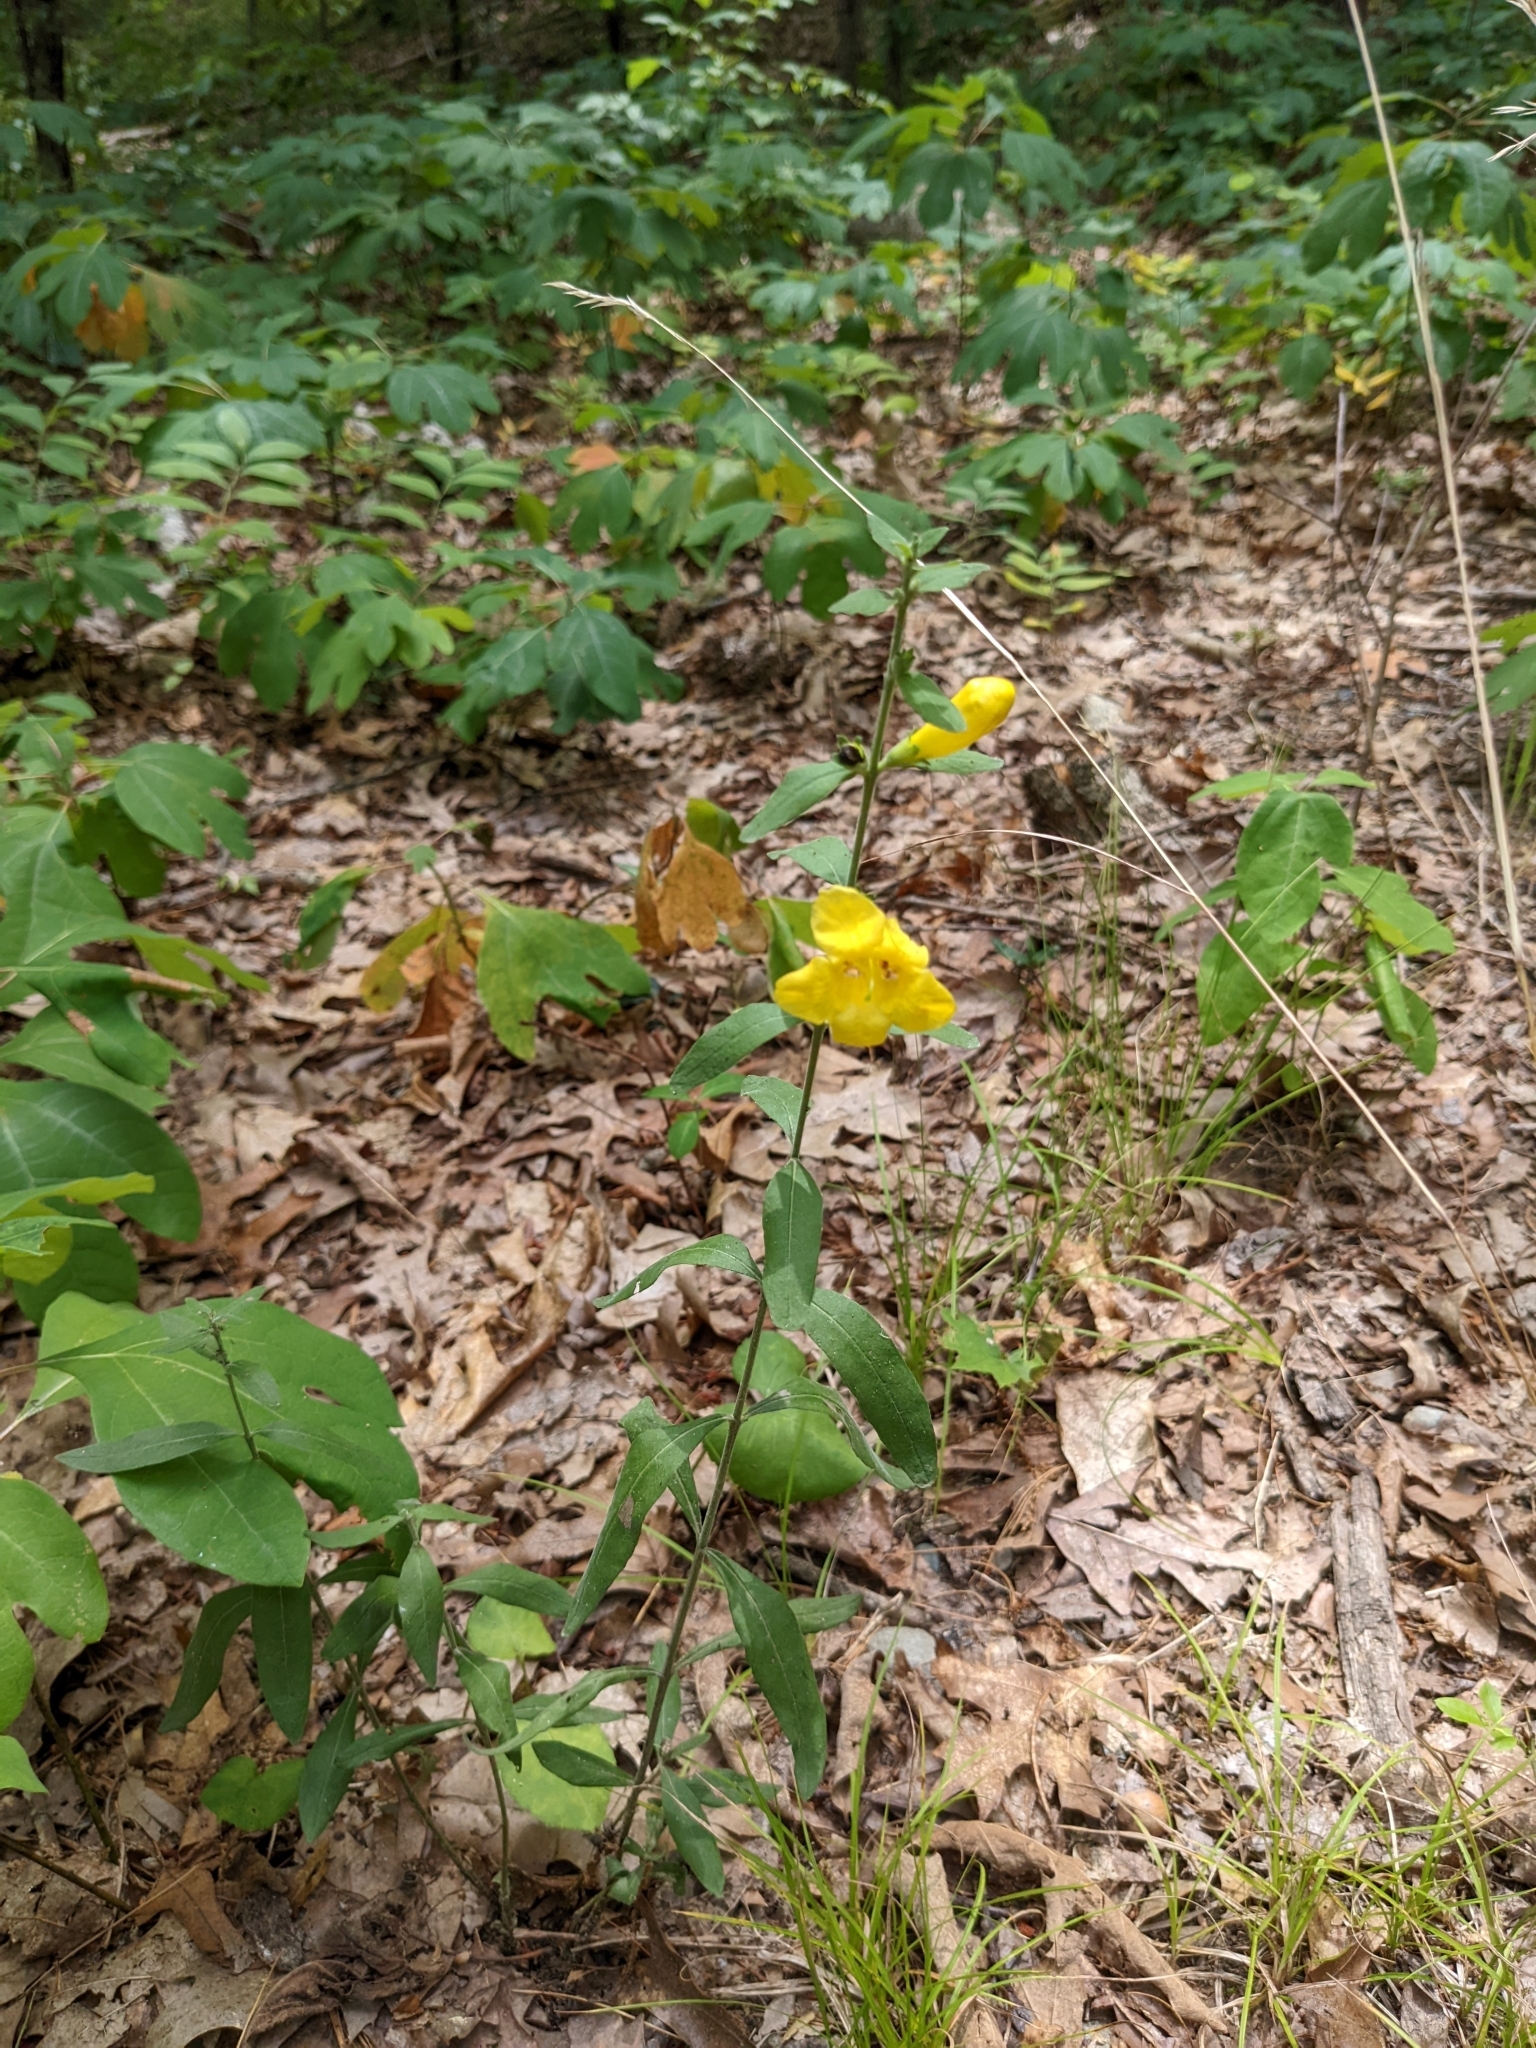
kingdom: Plantae
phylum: Tracheophyta
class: Magnoliopsida
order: Lamiales
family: Orobanchaceae
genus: Aureolaria
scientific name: Aureolaria virginica
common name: Downy false foxglove
